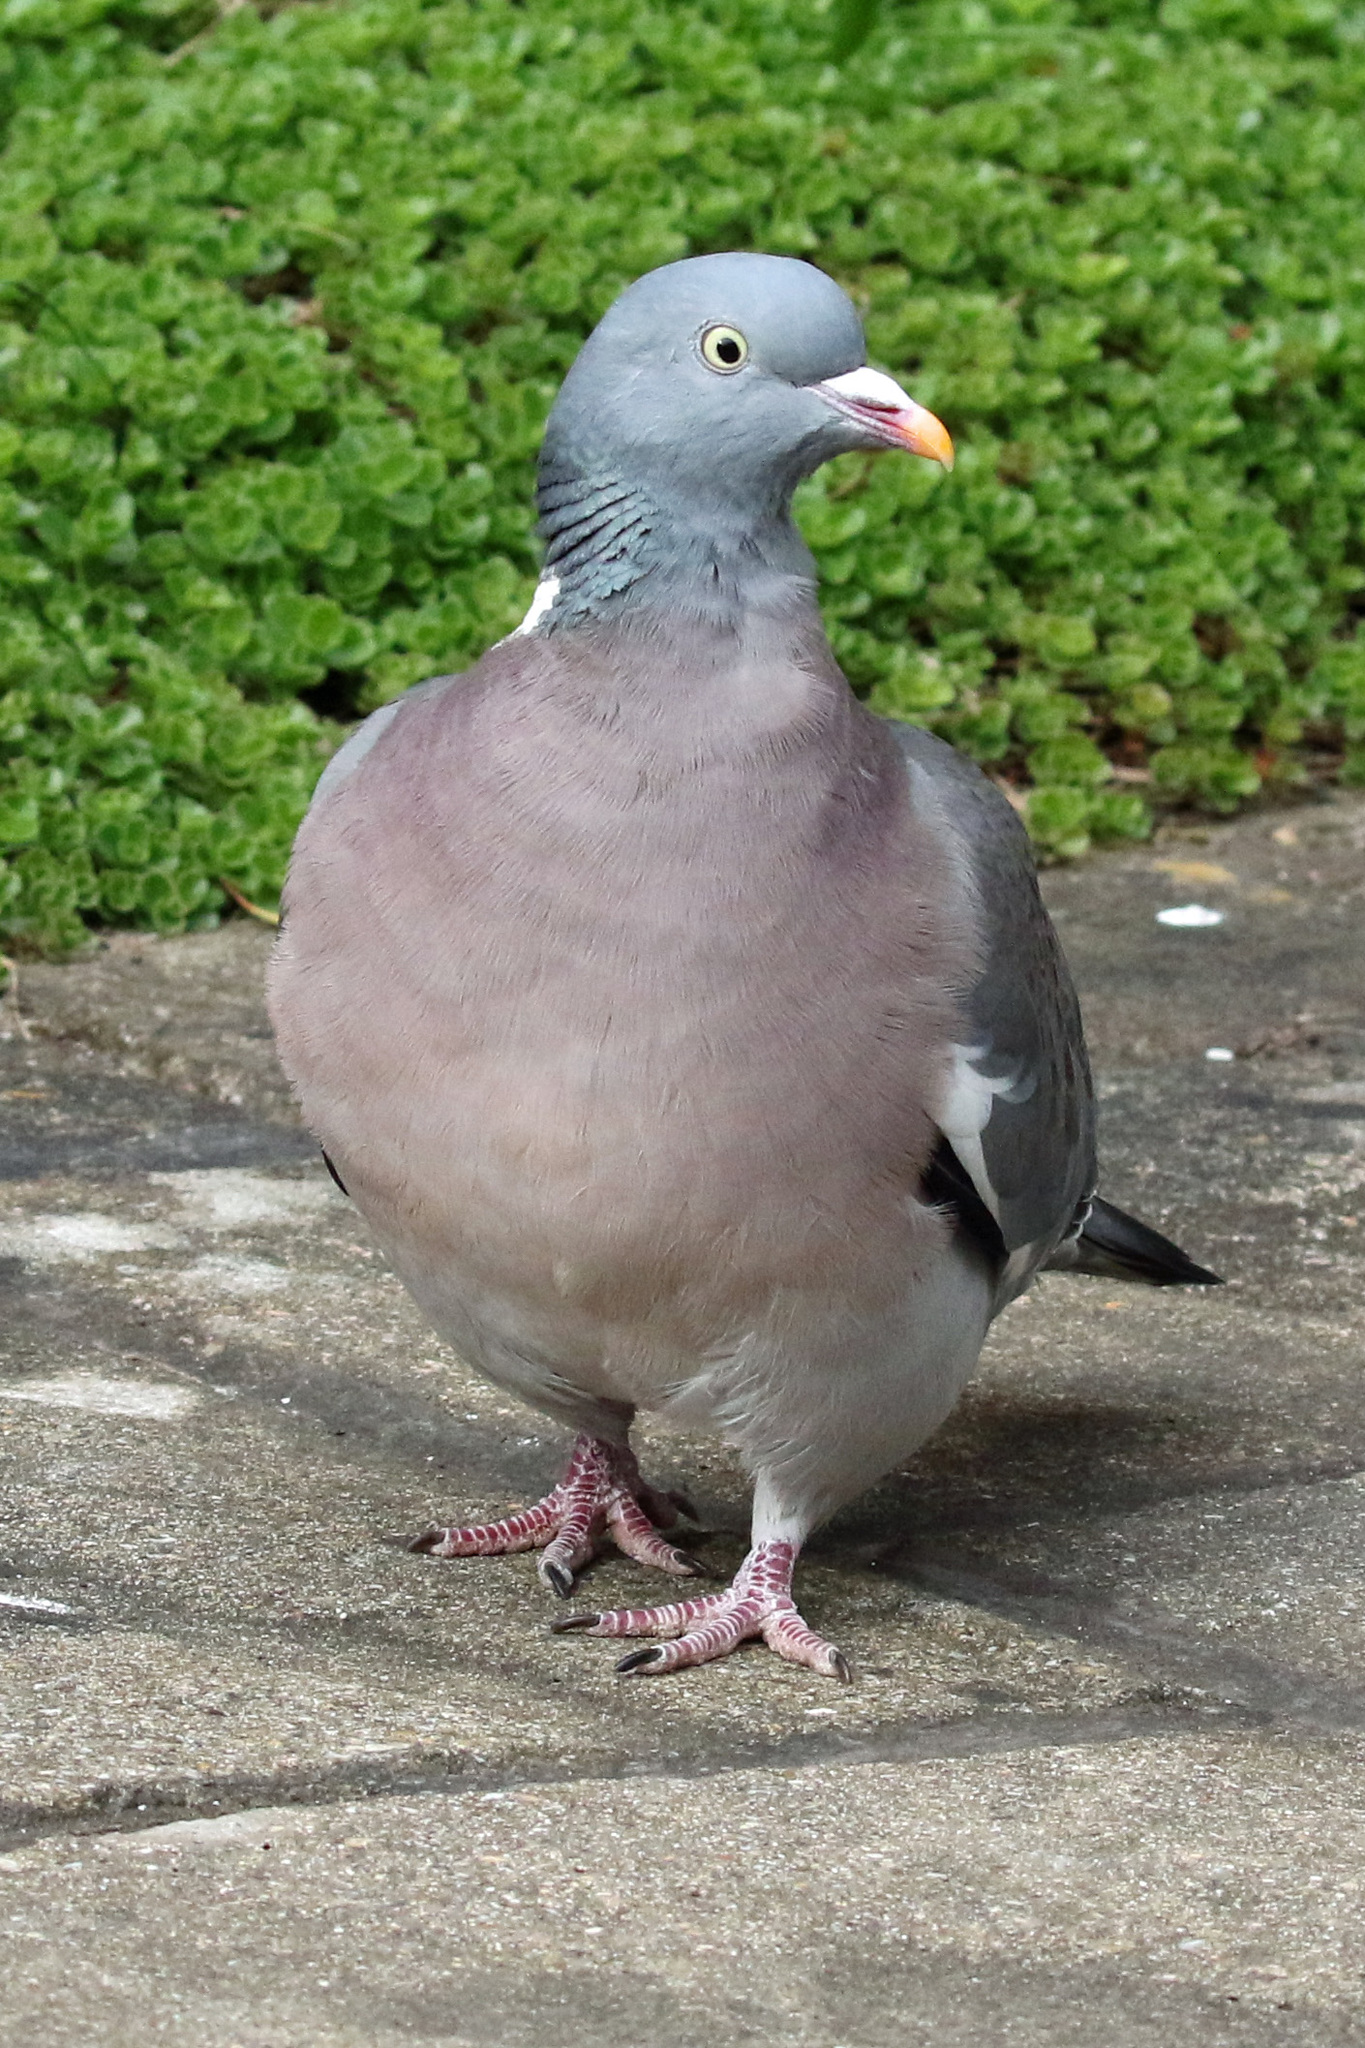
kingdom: Animalia
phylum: Chordata
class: Aves
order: Columbiformes
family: Columbidae
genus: Columba
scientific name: Columba palumbus
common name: Common wood pigeon
